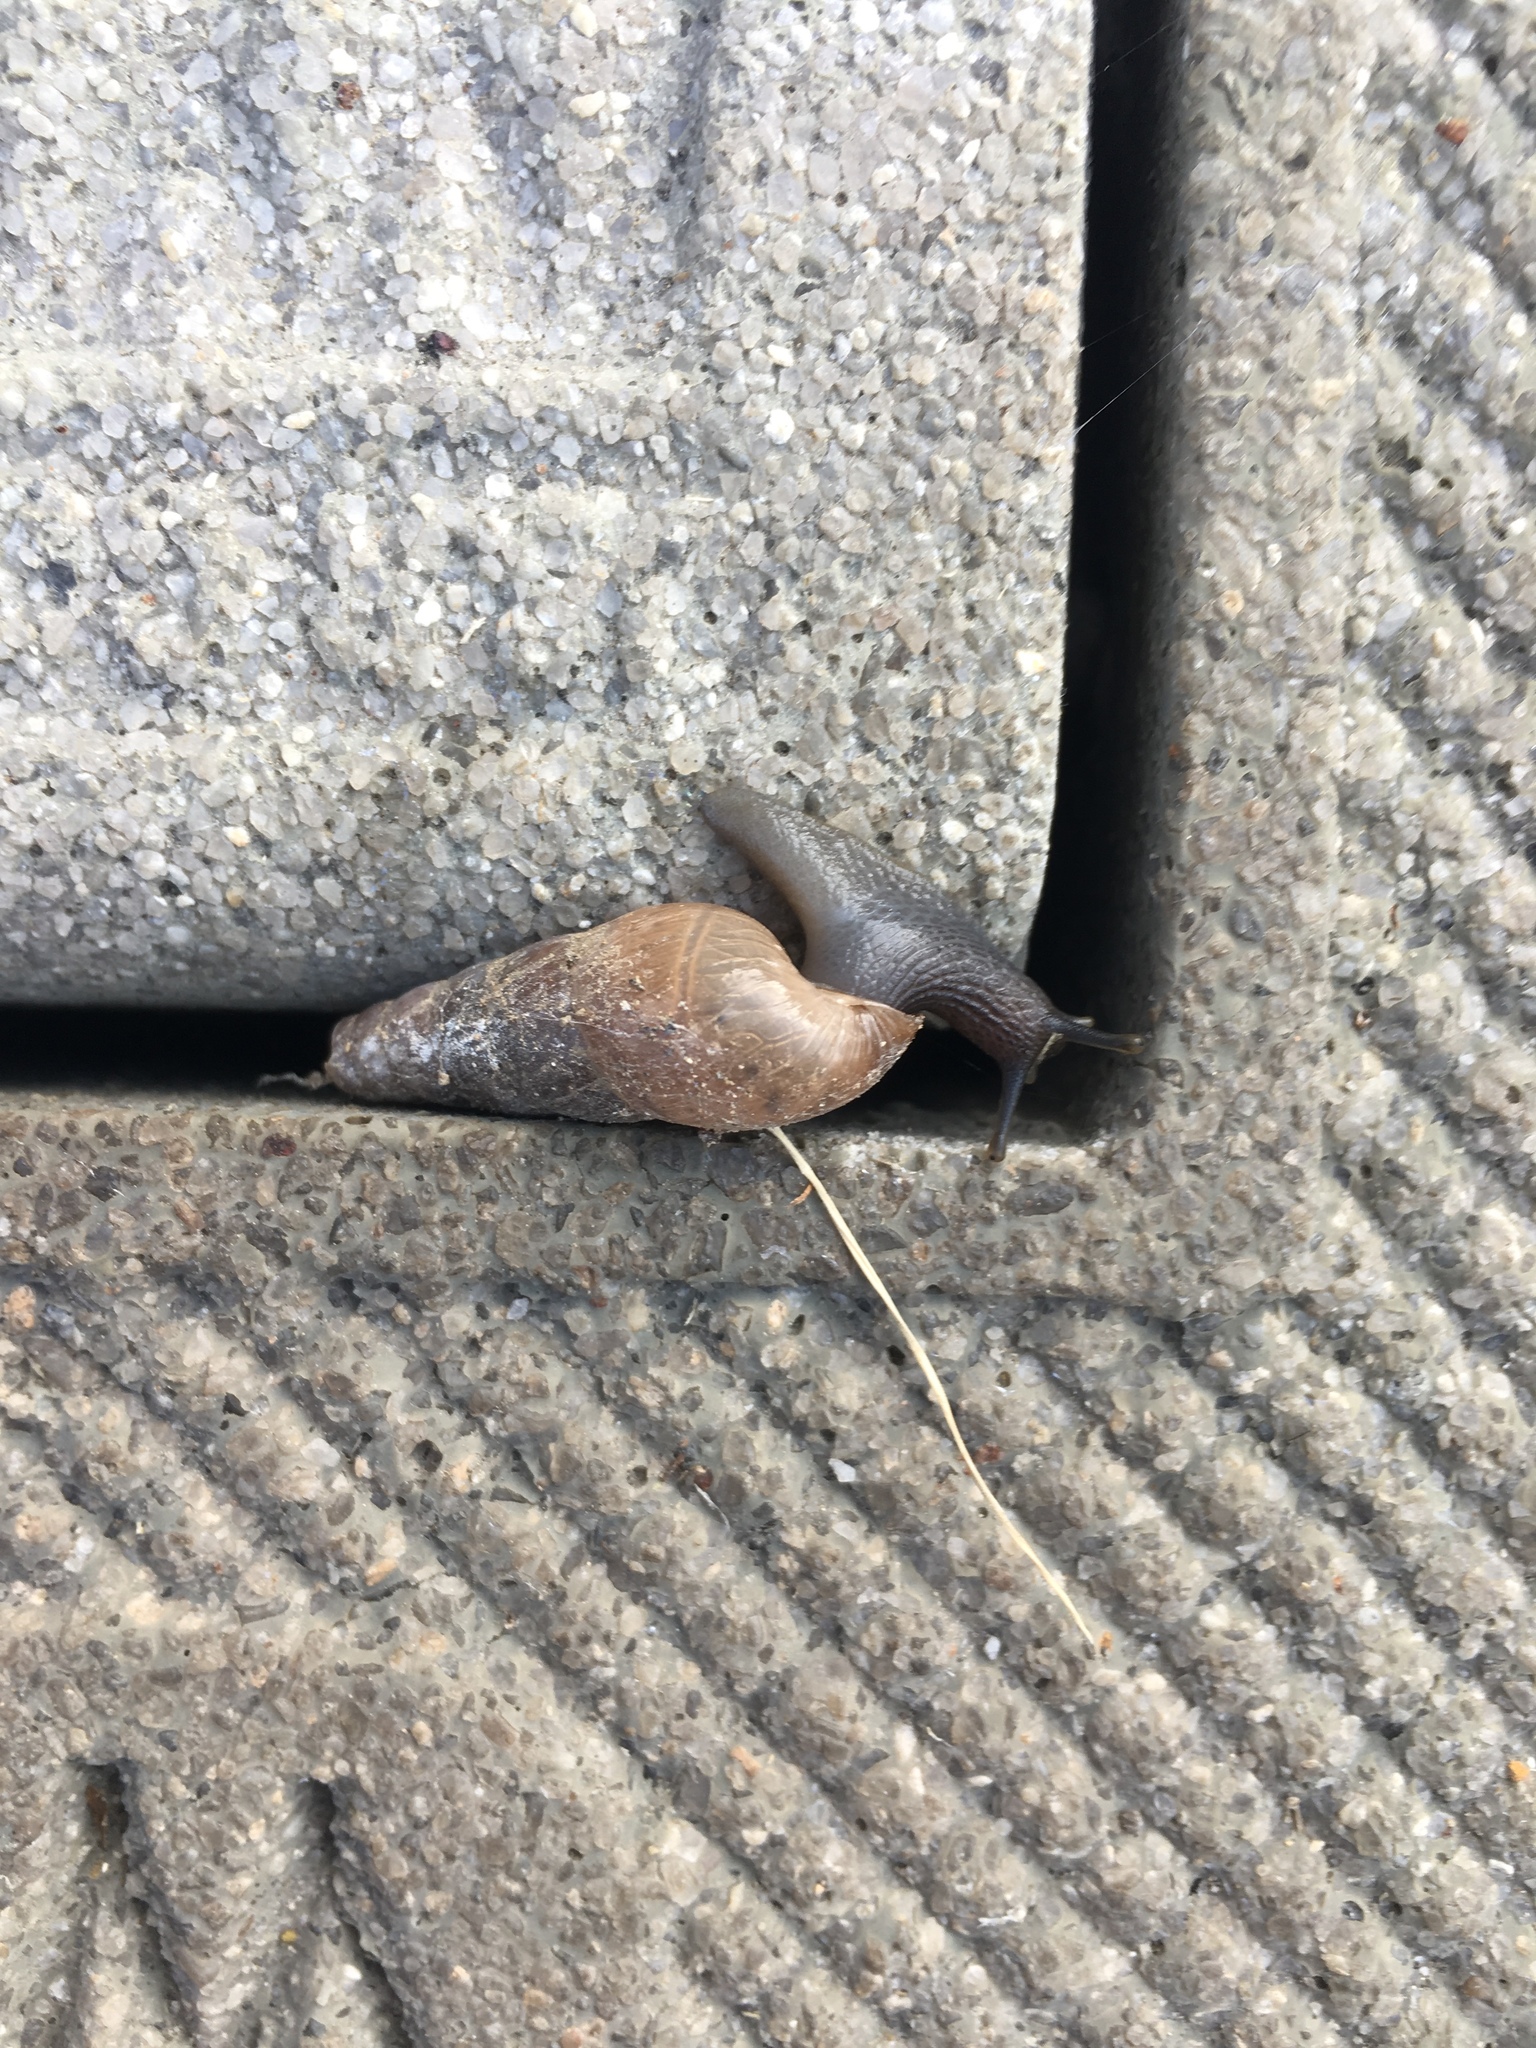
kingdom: Animalia
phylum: Mollusca
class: Gastropoda
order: Stylommatophora
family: Achatinidae
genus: Rumina
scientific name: Rumina decollata
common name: Decollate snail
